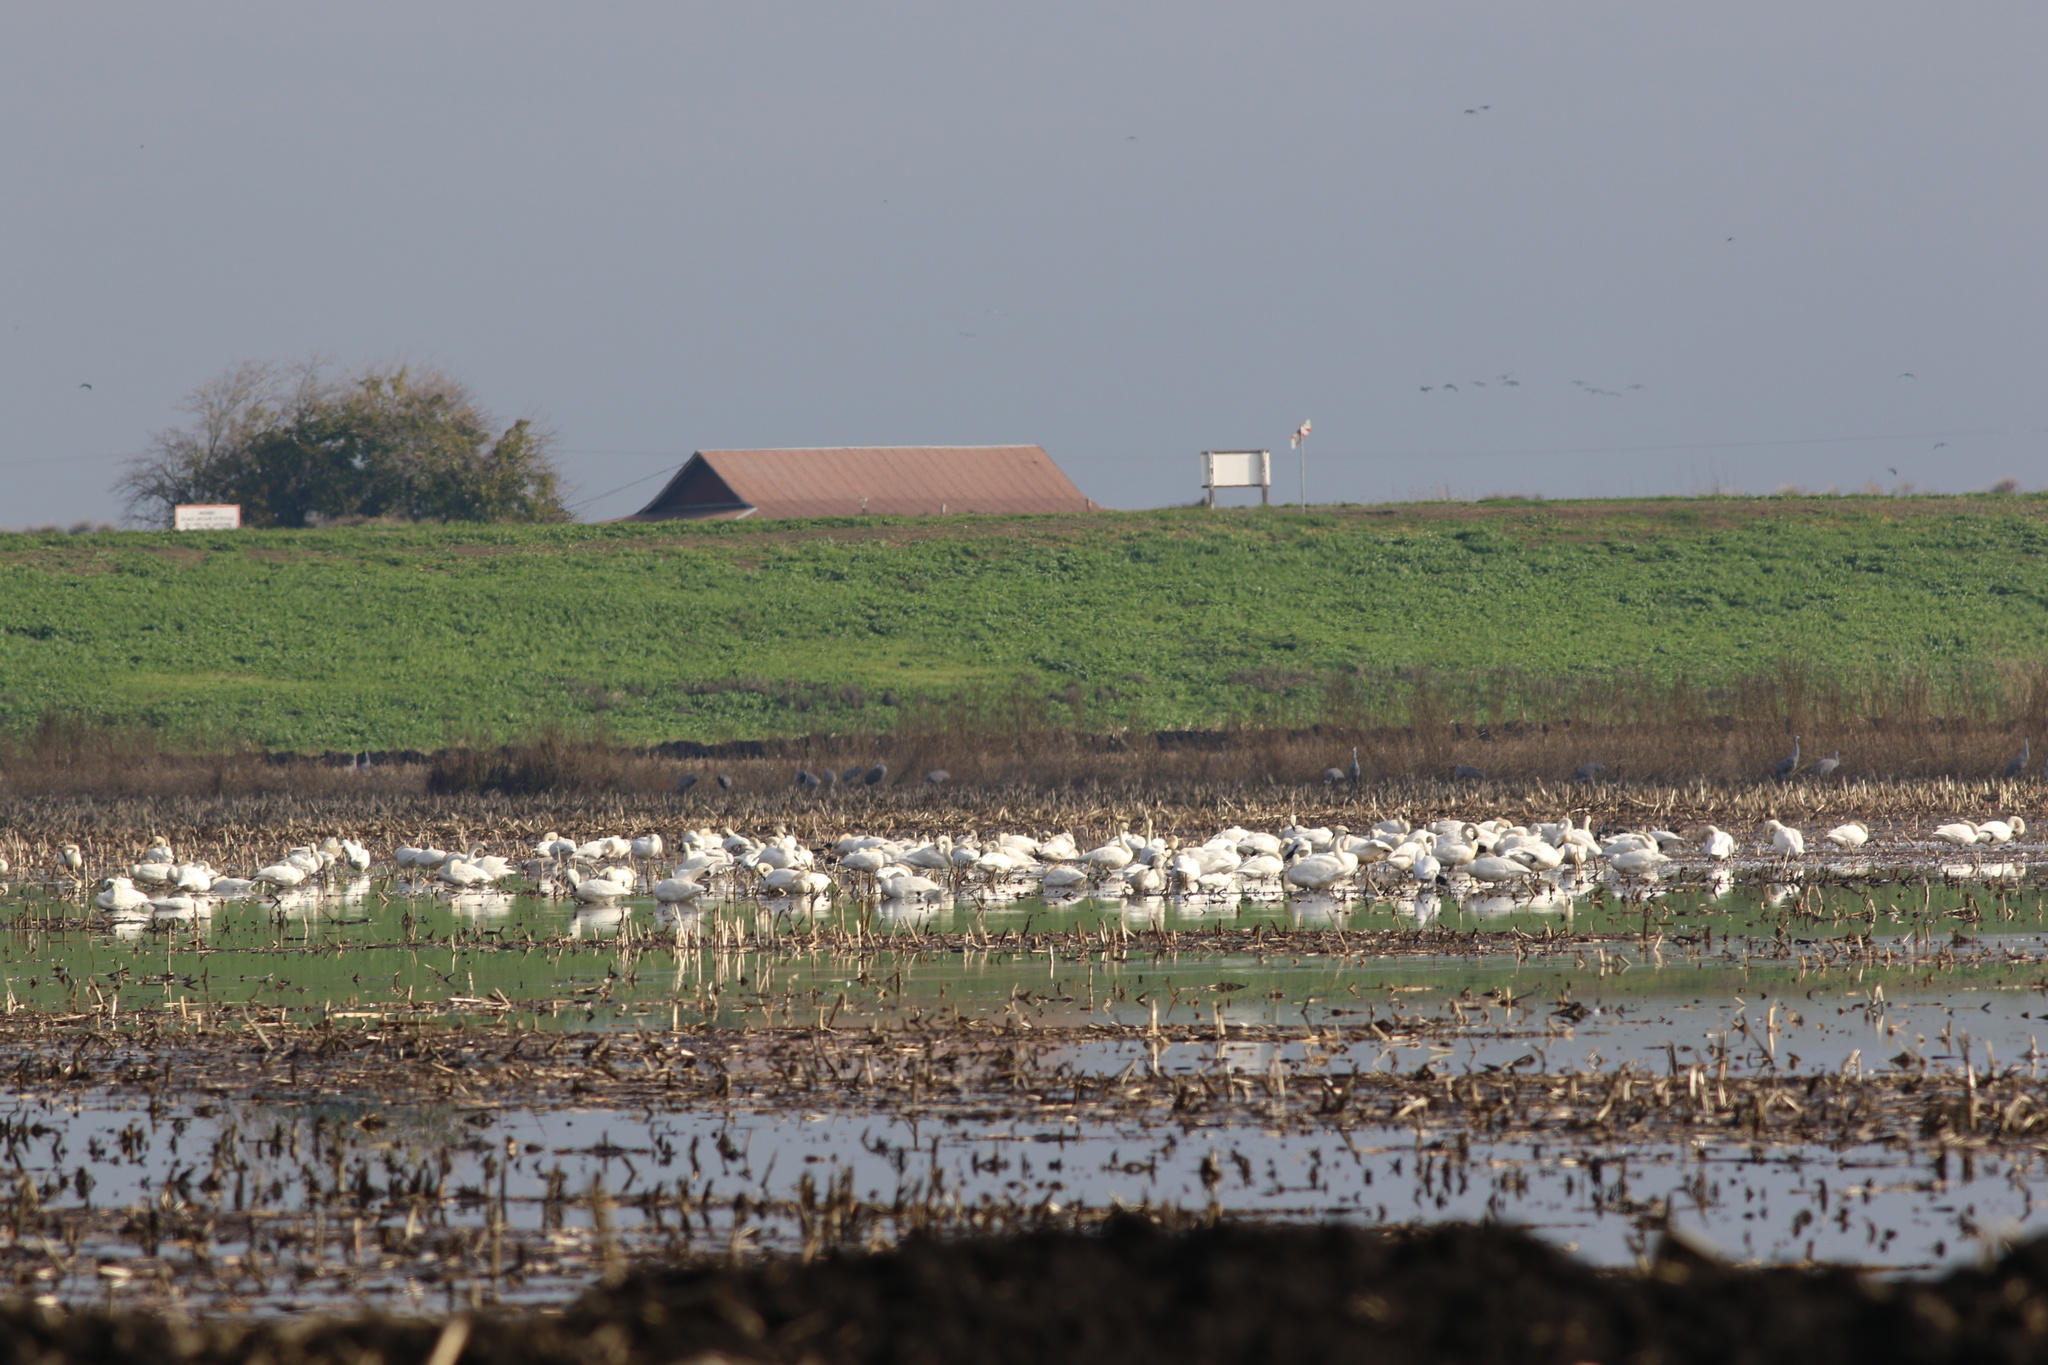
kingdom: Animalia
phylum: Chordata
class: Aves
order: Anseriformes
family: Anatidae
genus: Cygnus
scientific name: Cygnus columbianus
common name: Tundra swan
